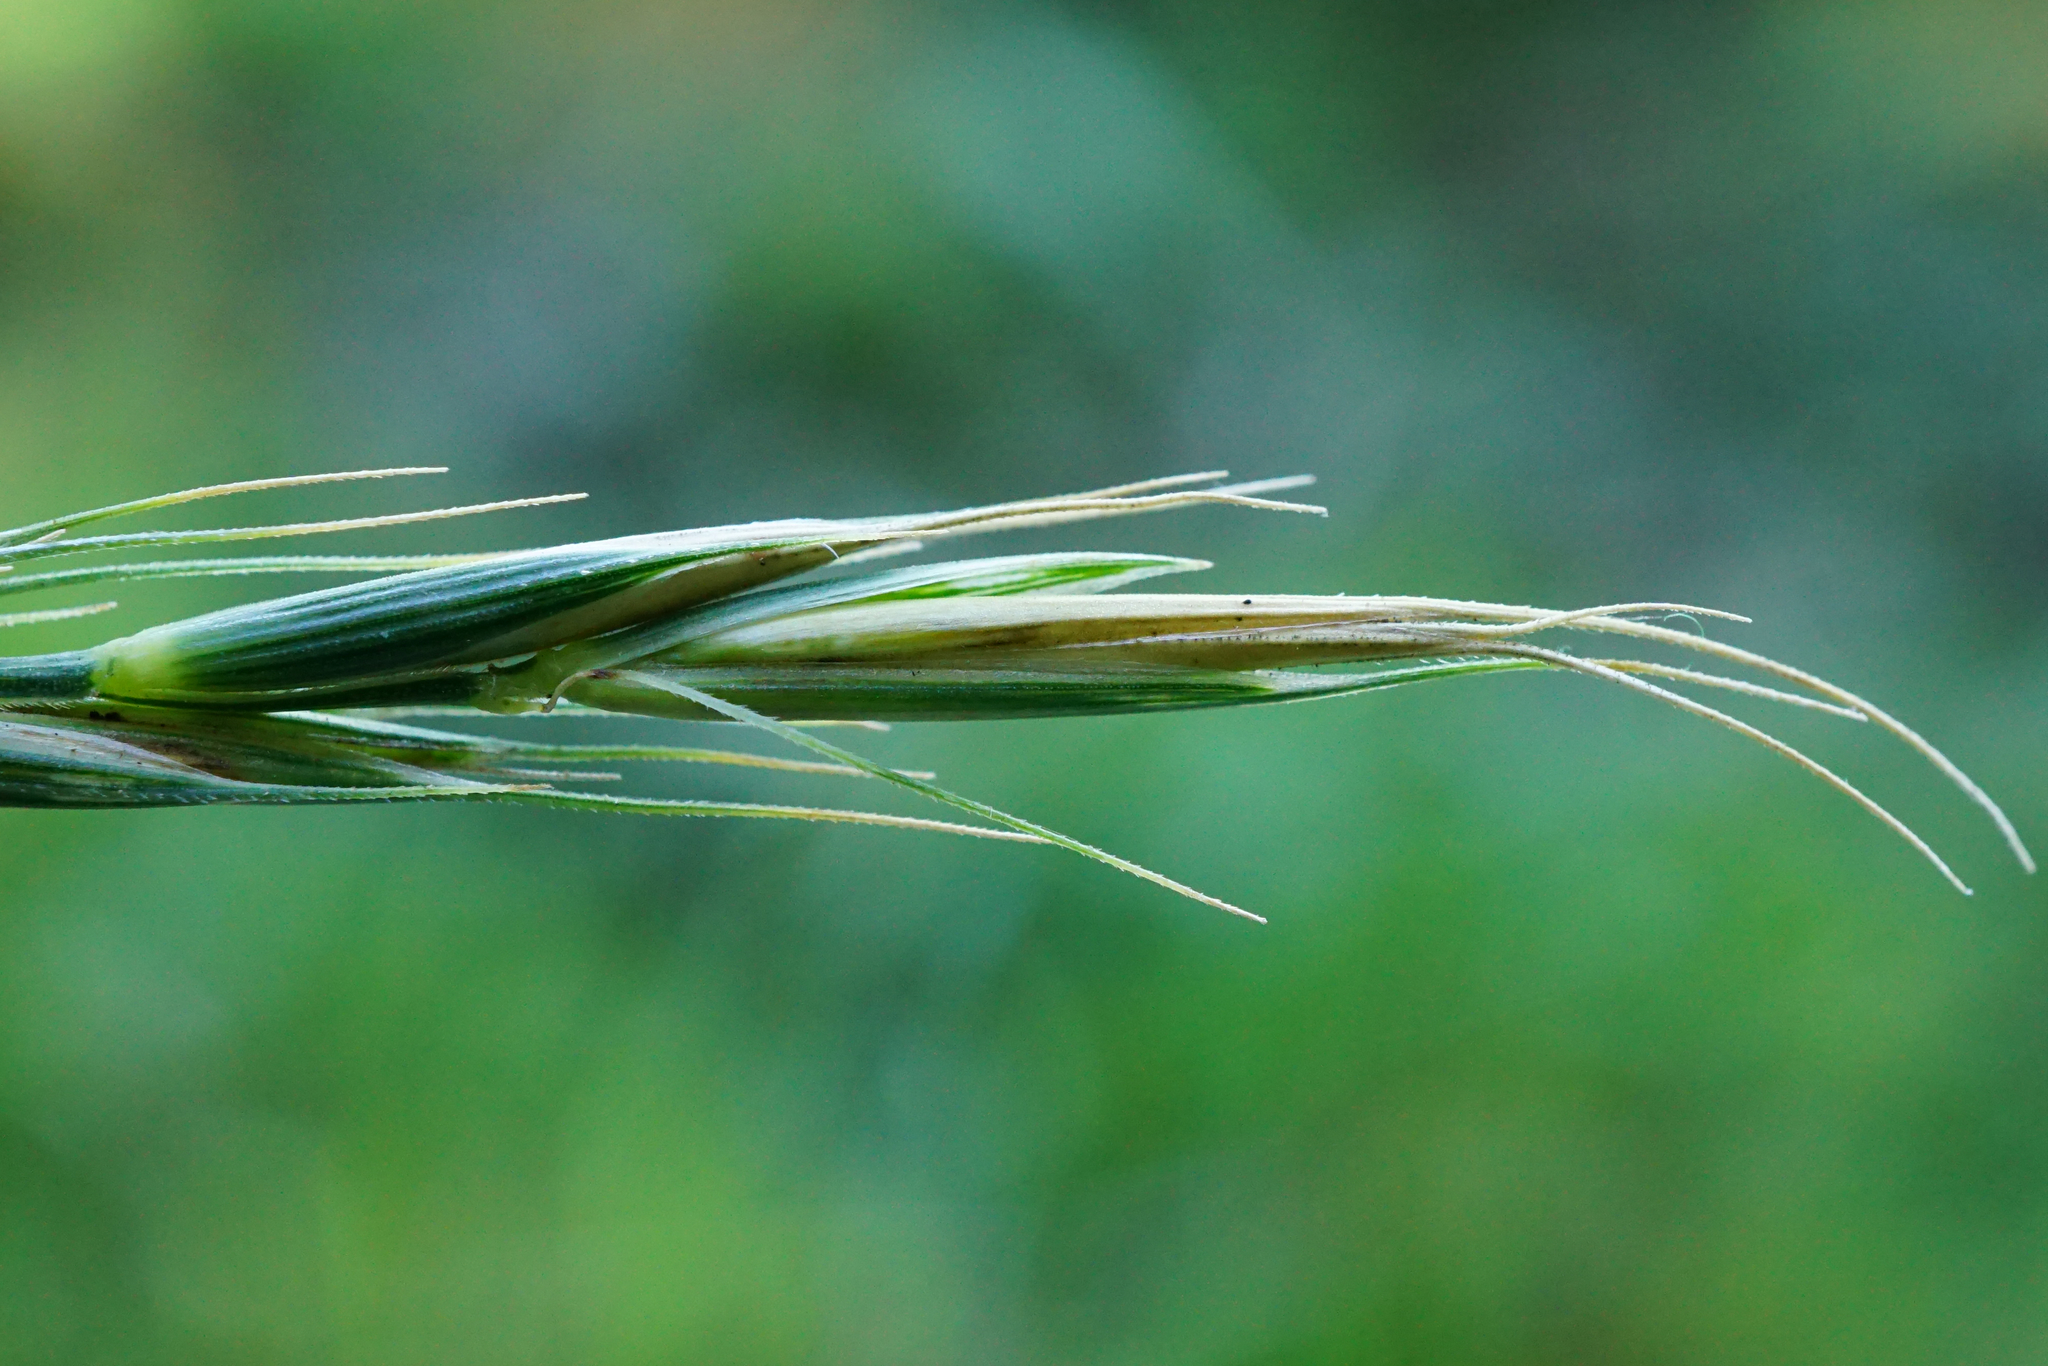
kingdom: Plantae
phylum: Tracheophyta
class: Liliopsida
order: Poales
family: Poaceae
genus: Elymus
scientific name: Elymus caninus
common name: Bearded couch
